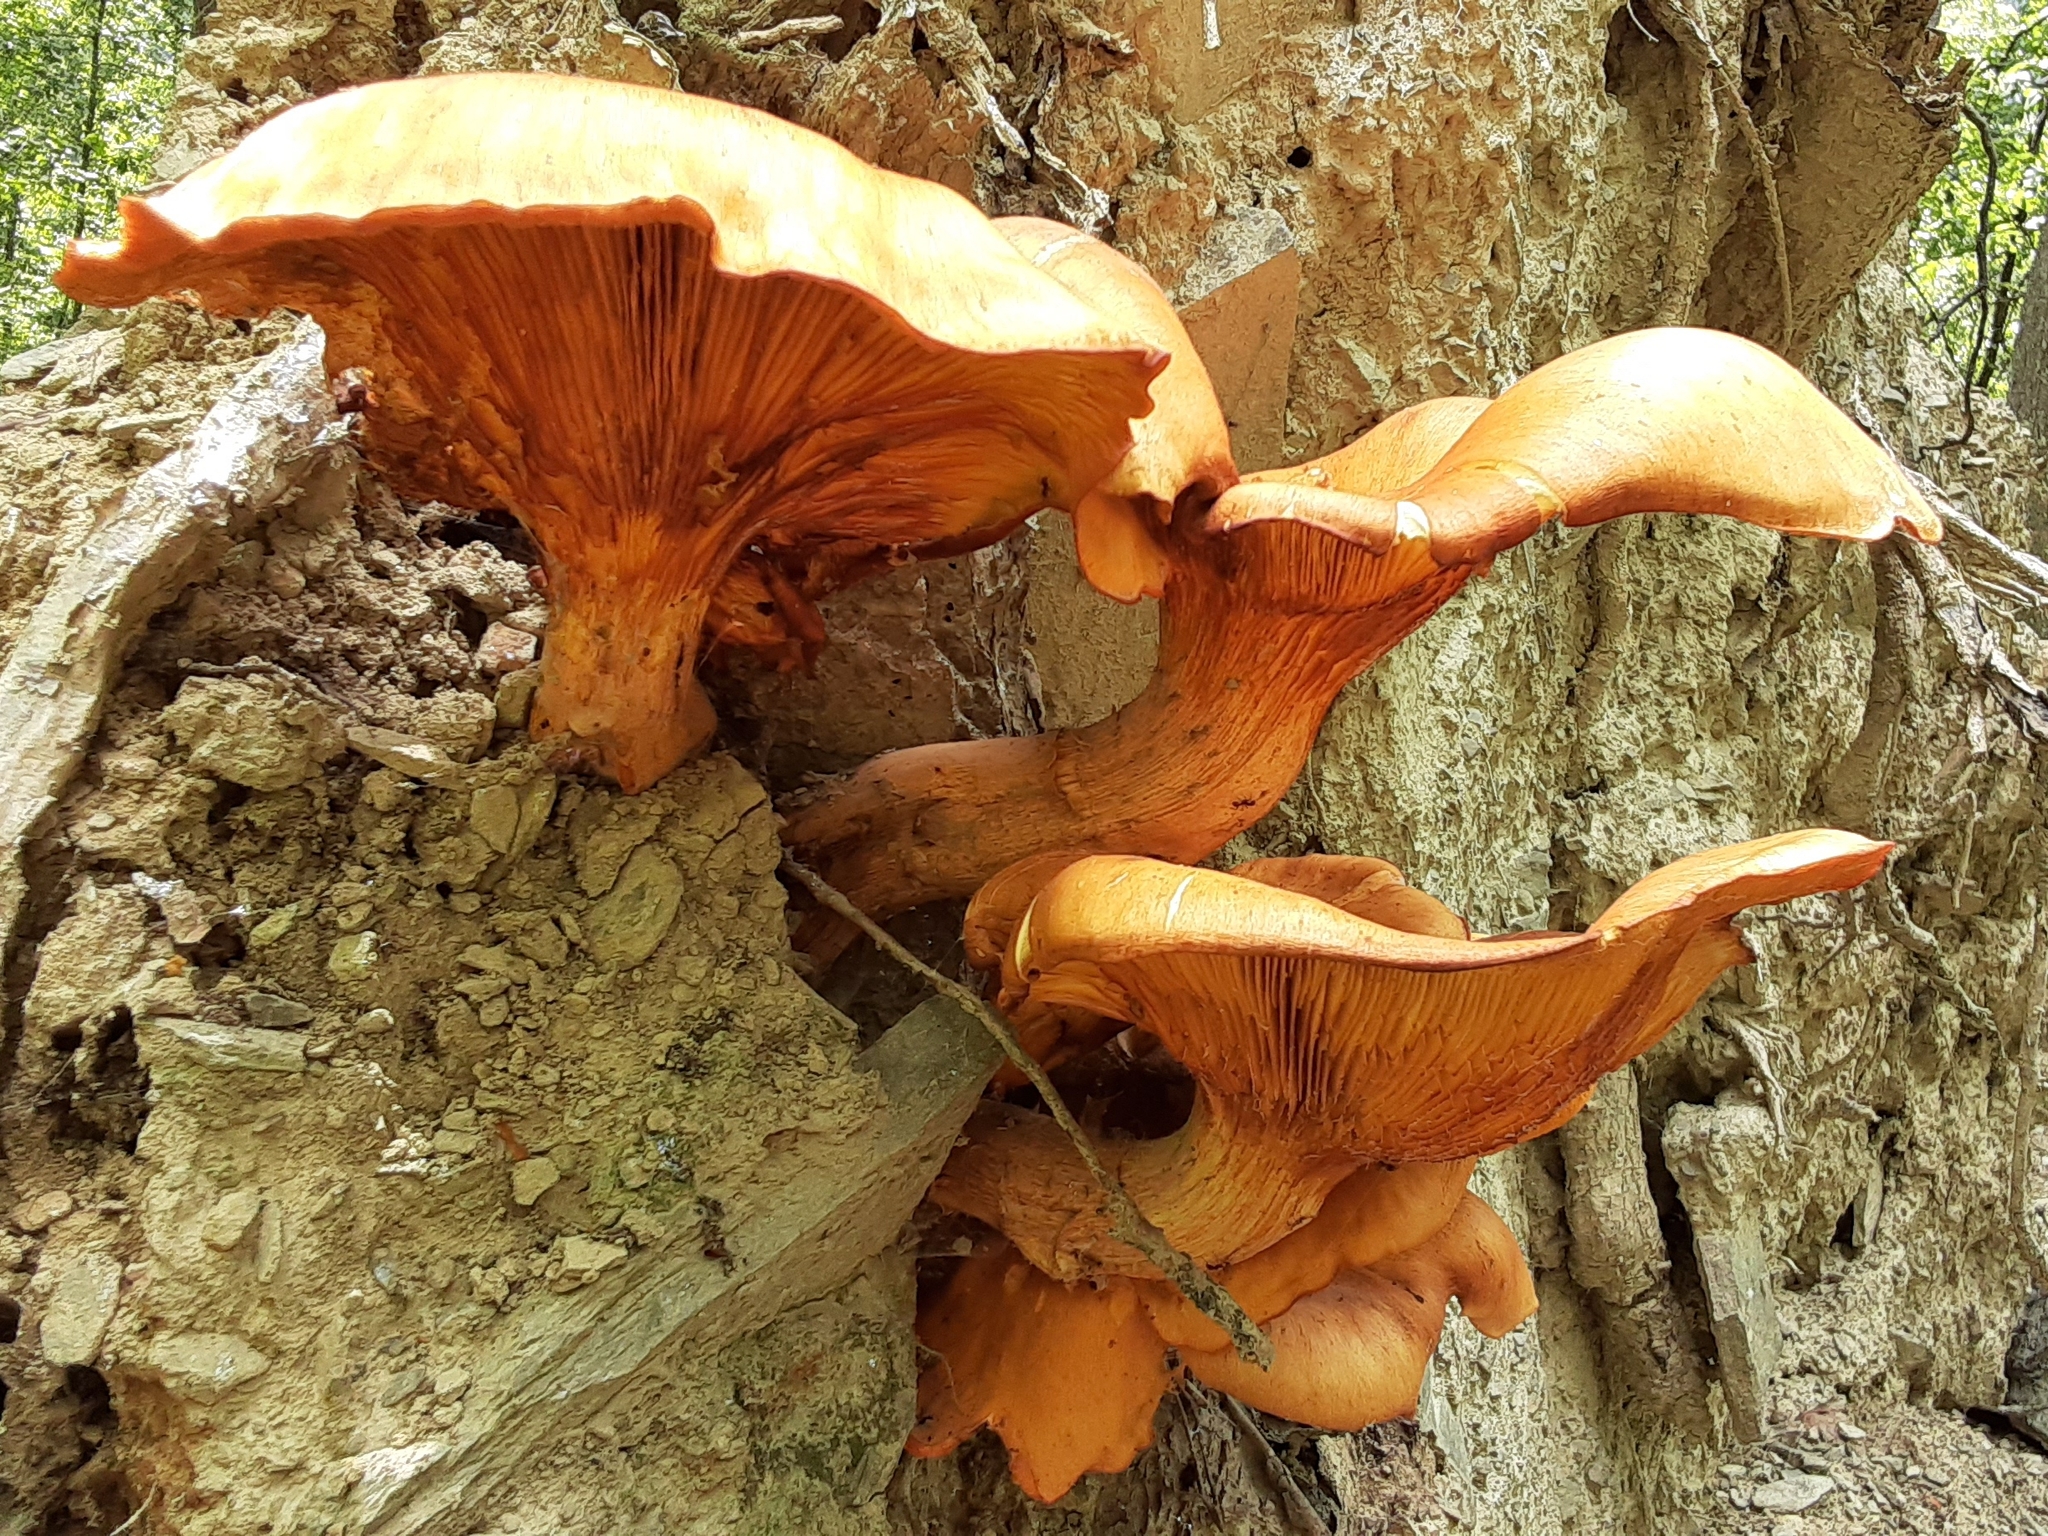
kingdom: Fungi
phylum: Basidiomycota
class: Agaricomycetes
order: Agaricales
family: Omphalotaceae
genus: Omphalotus
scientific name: Omphalotus illudens
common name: Jack o lantern
